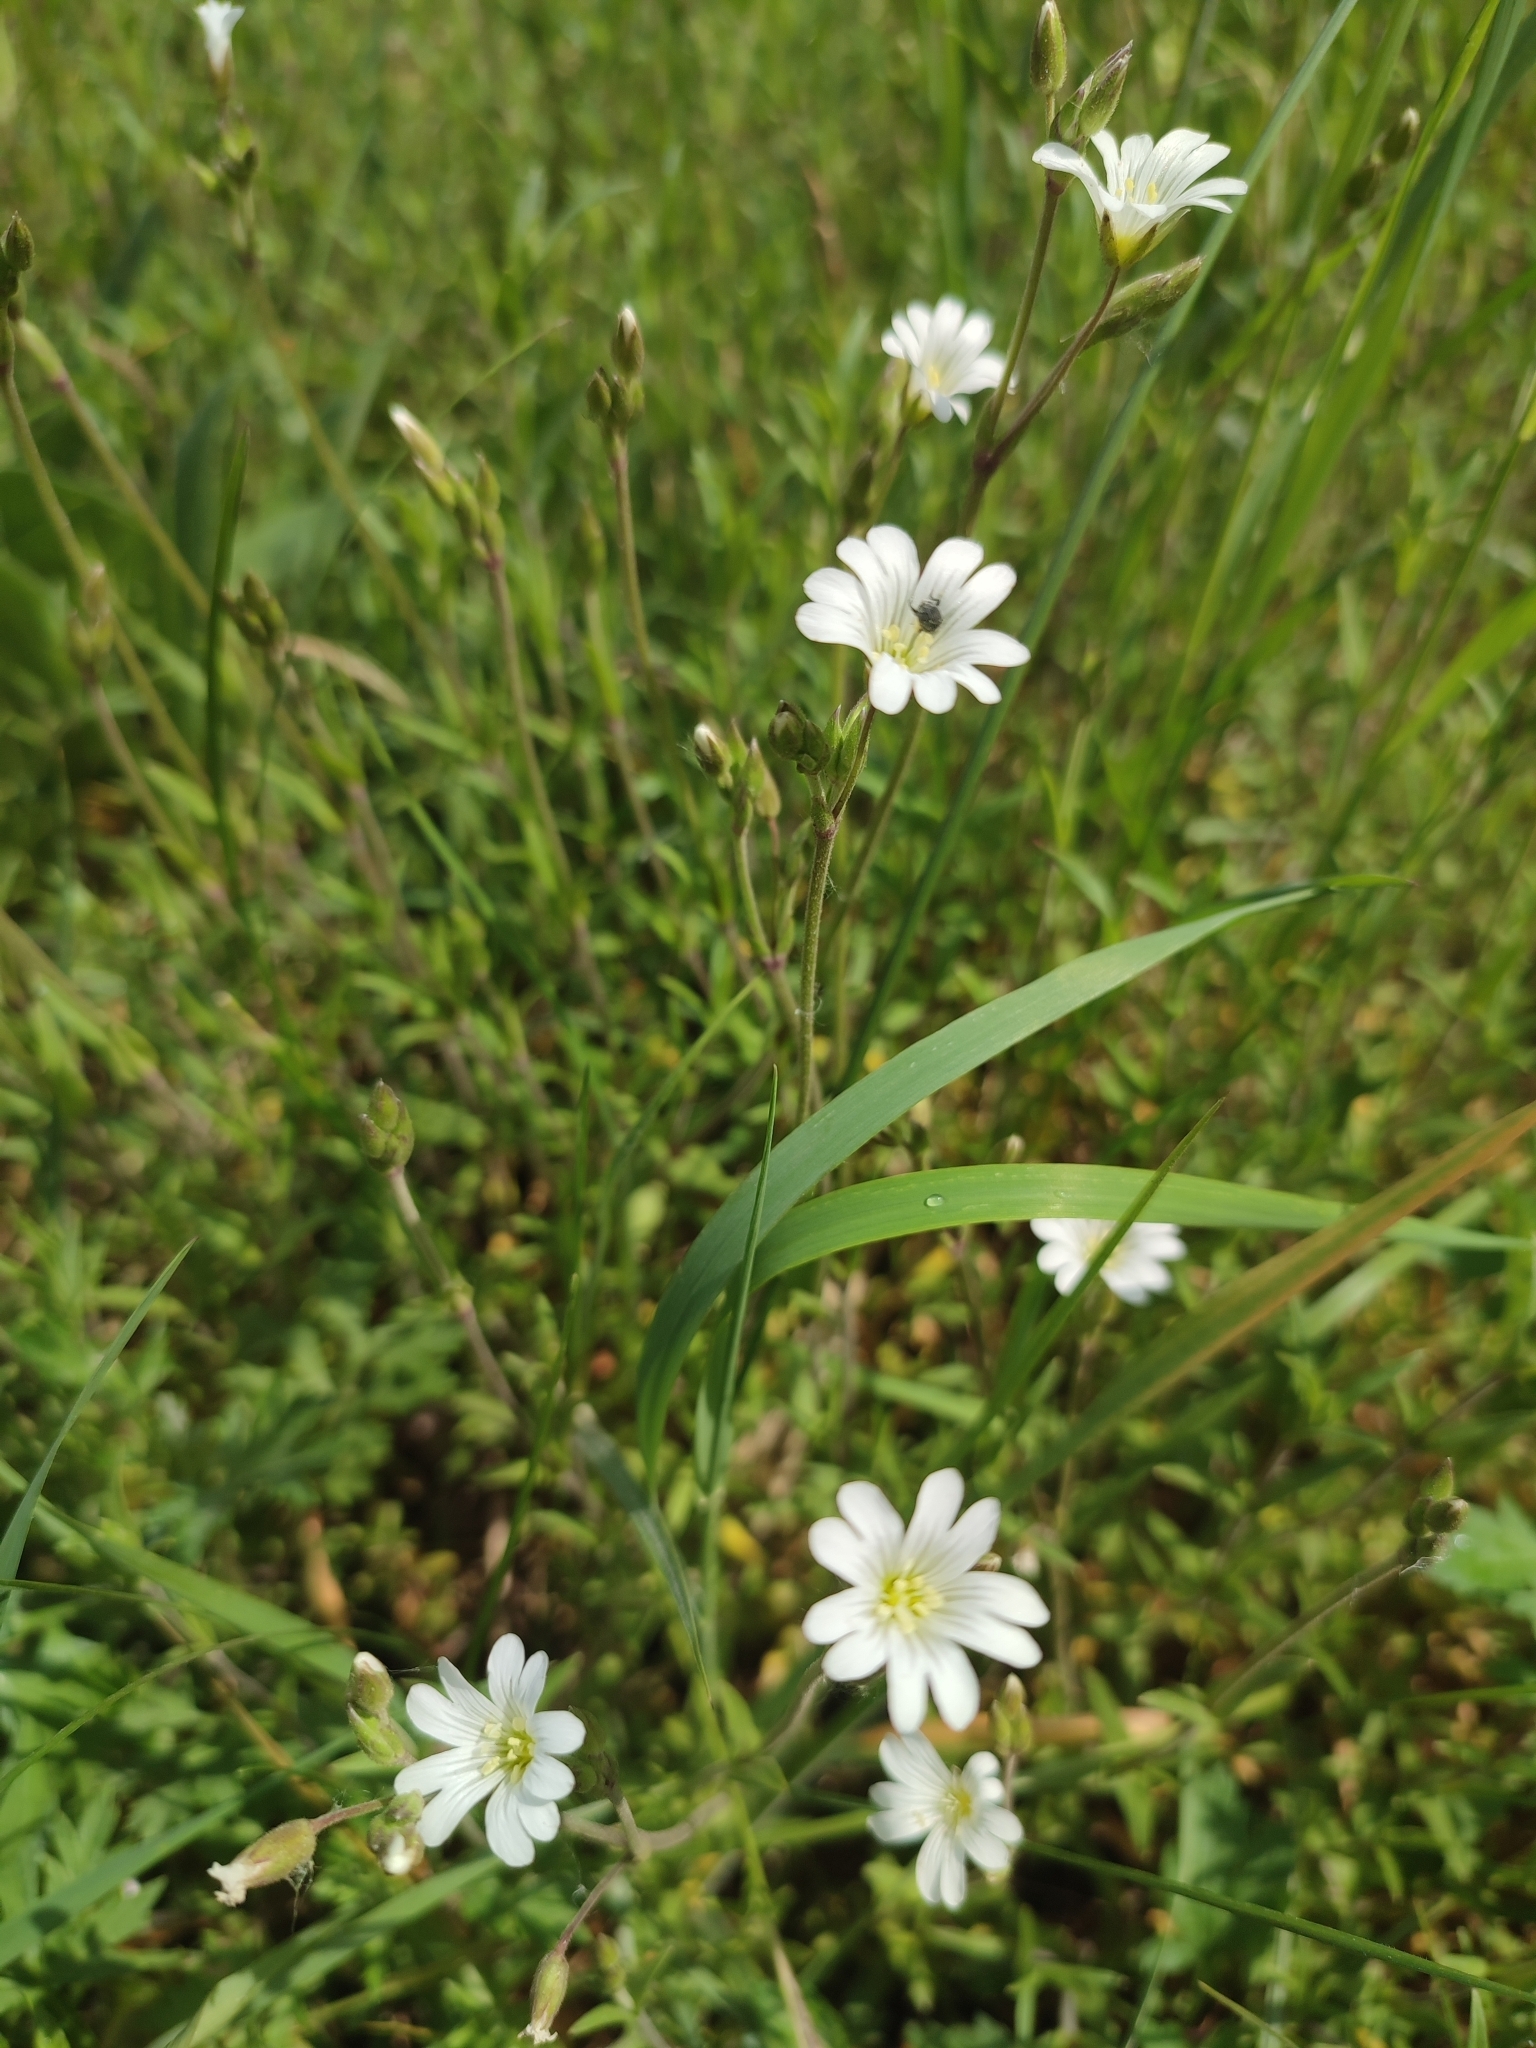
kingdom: Plantae
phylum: Tracheophyta
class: Magnoliopsida
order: Caryophyllales
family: Caryophyllaceae
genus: Cerastium
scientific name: Cerastium arvense
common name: Field mouse-ear
